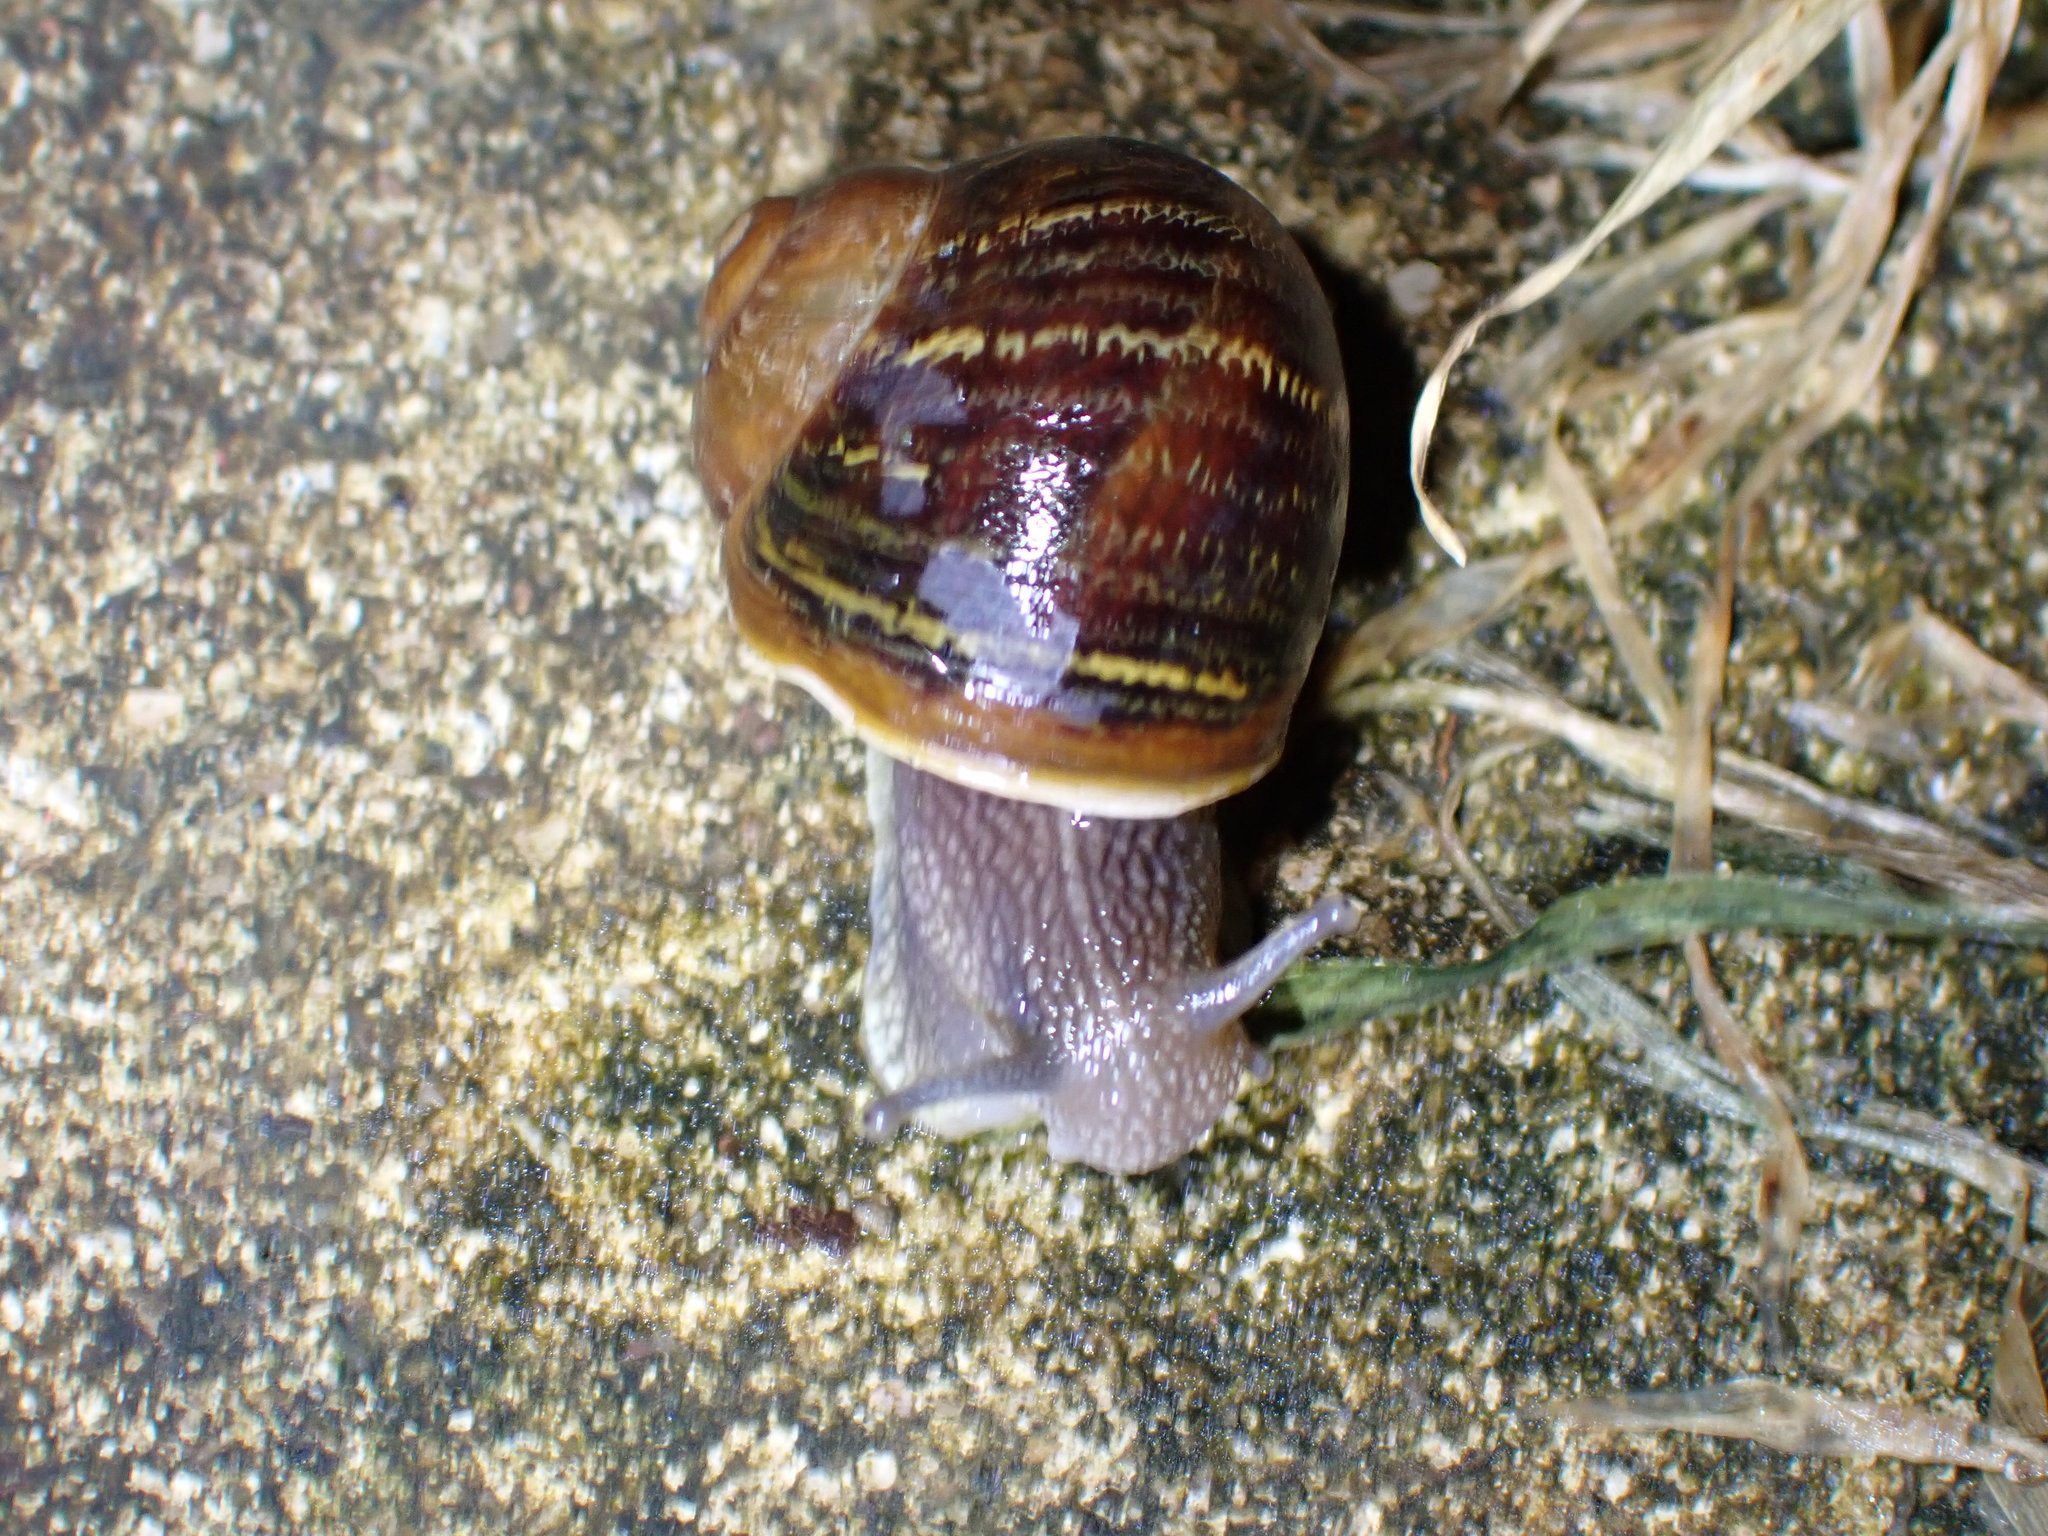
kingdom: Animalia
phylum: Mollusca
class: Gastropoda
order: Stylommatophora
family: Helicidae
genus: Cornu
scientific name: Cornu aspersum
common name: Brown garden snail
